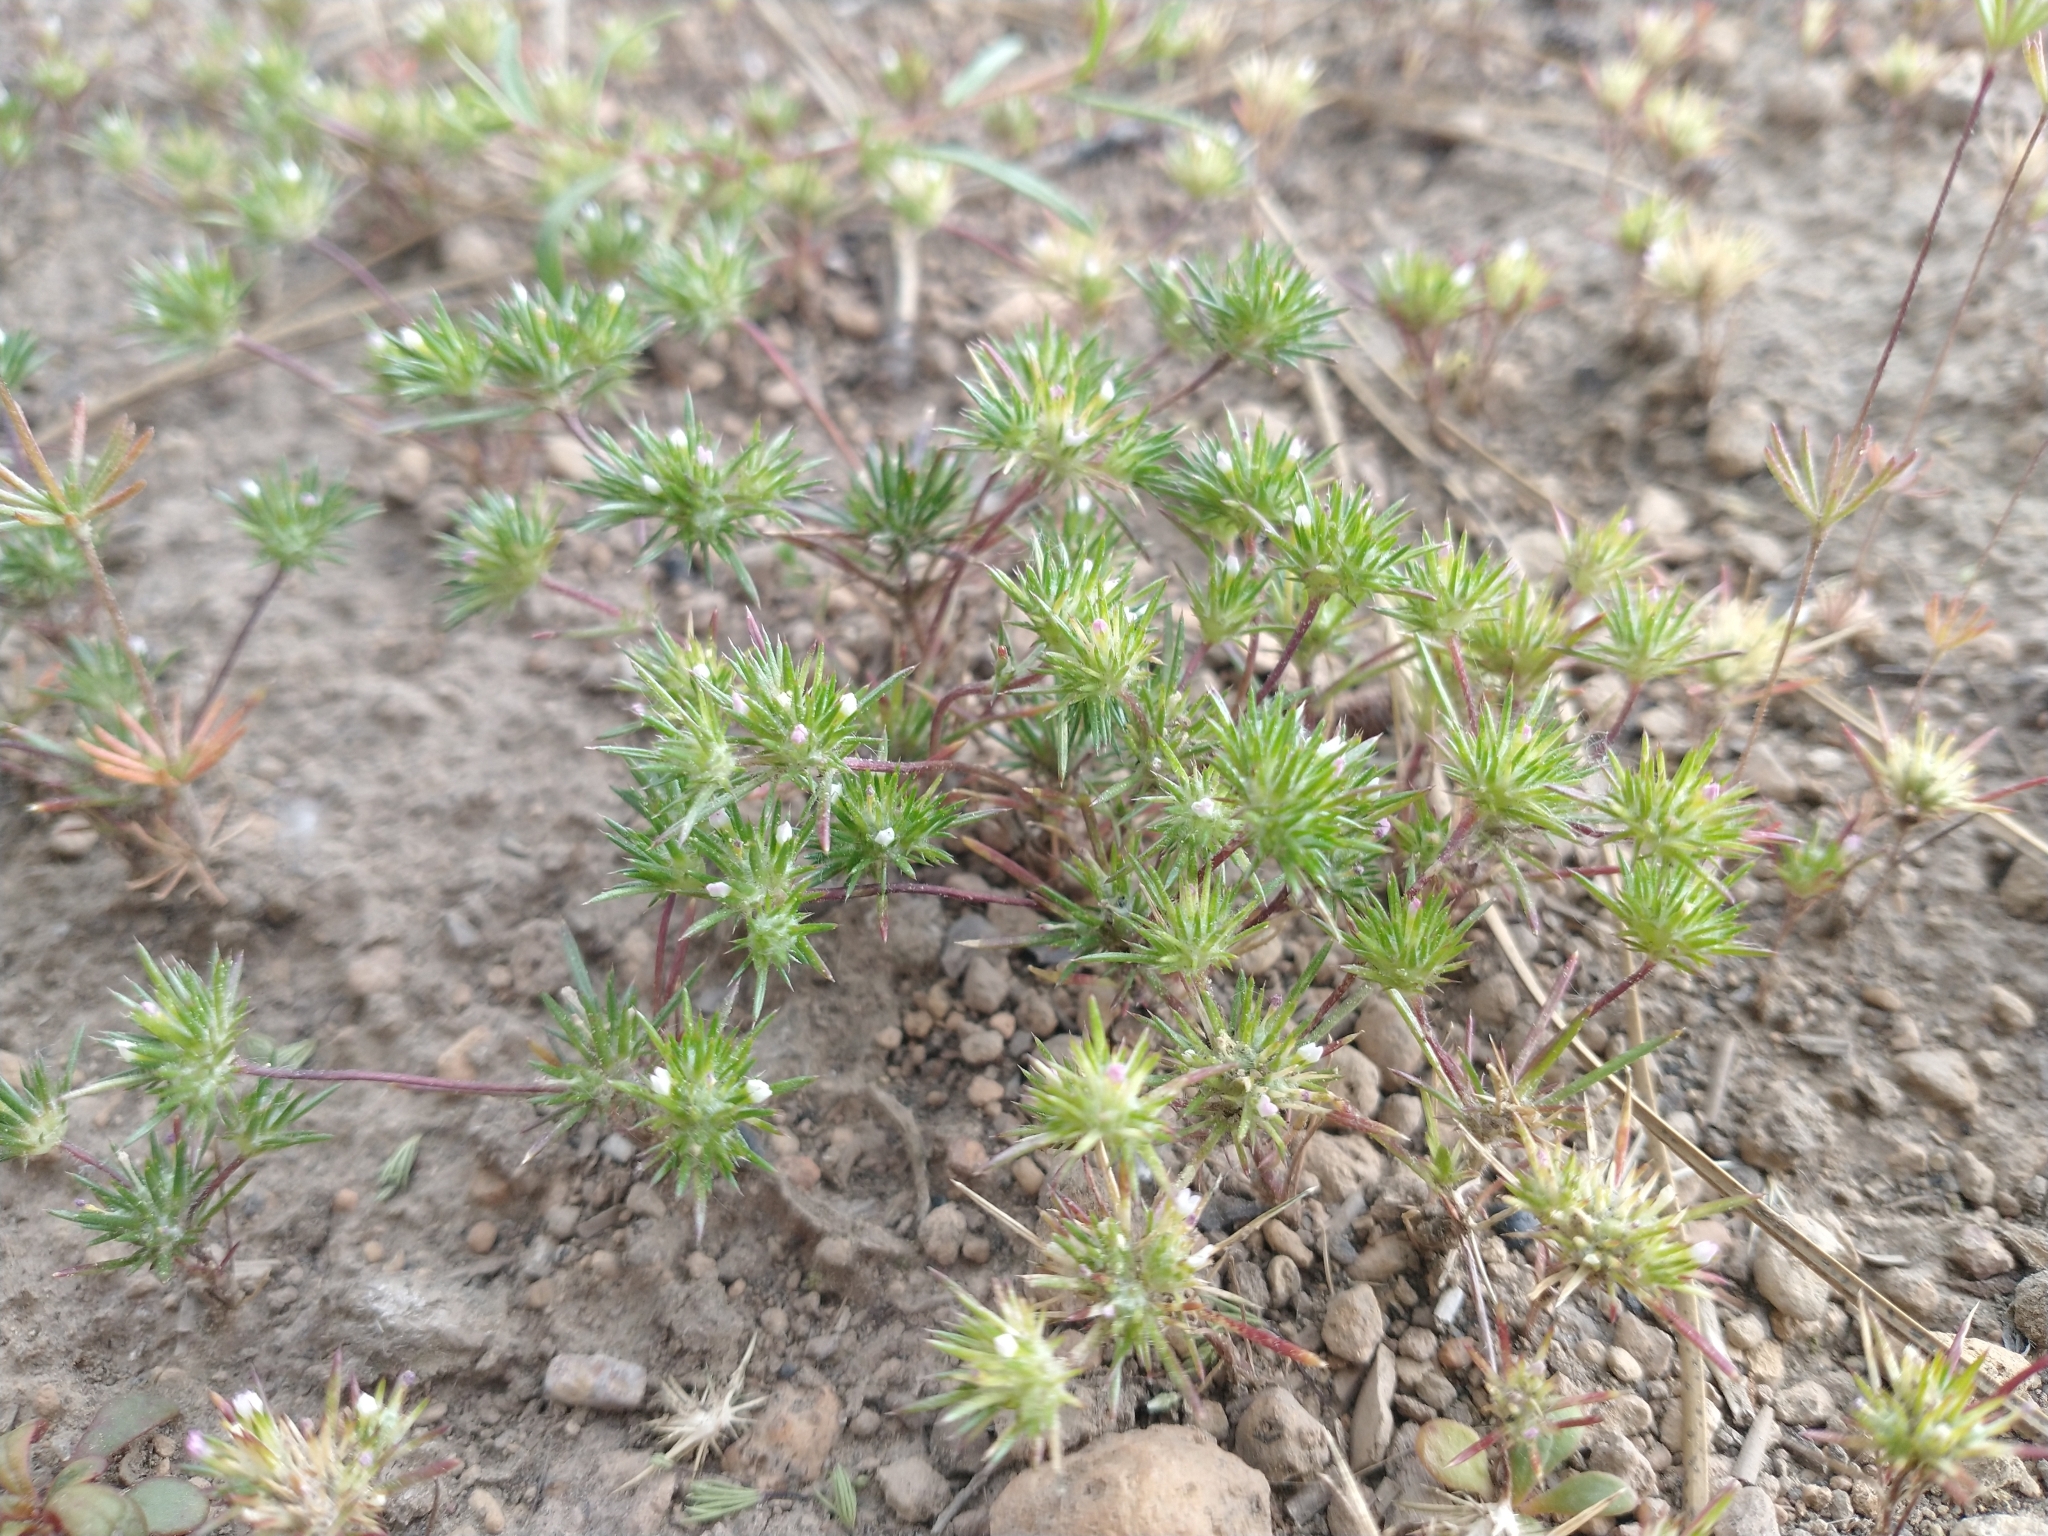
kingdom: Plantae
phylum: Tracheophyta
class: Magnoliopsida
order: Ericales
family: Polemoniaceae
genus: Navarretia
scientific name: Navarretia divaricata
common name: Mountain navarretia
